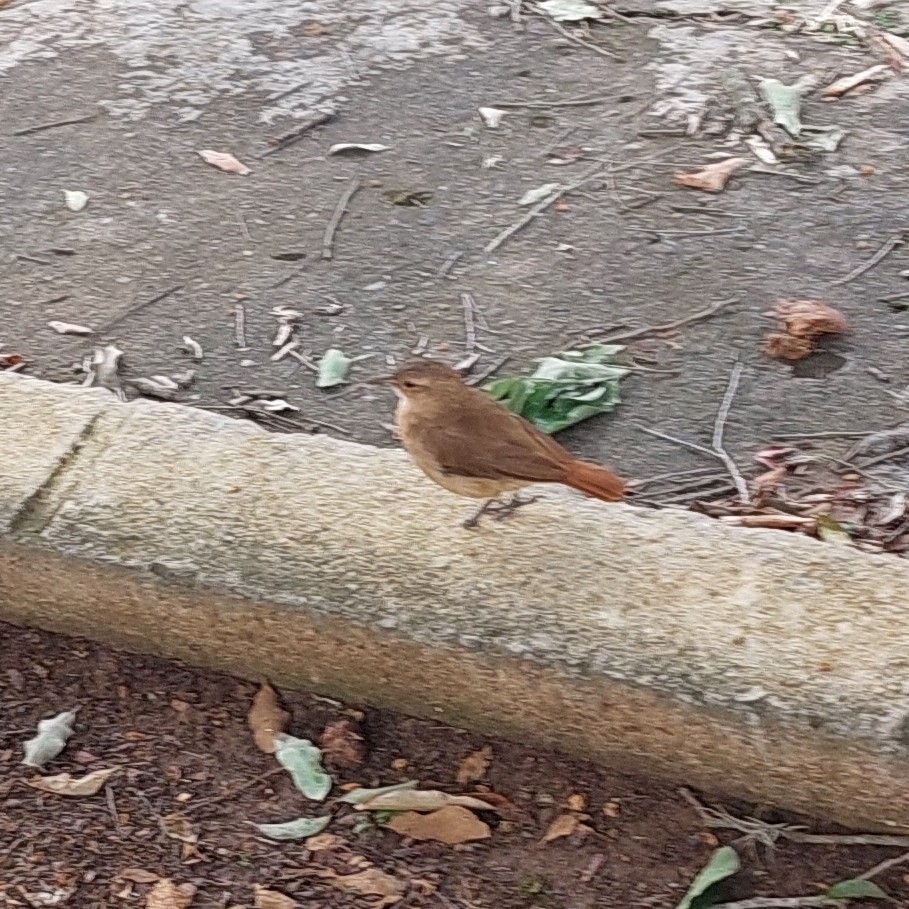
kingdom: Animalia
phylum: Chordata
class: Aves
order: Passeriformes
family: Furnariidae
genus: Furnarius
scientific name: Furnarius rufus
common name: Rufous hornero
